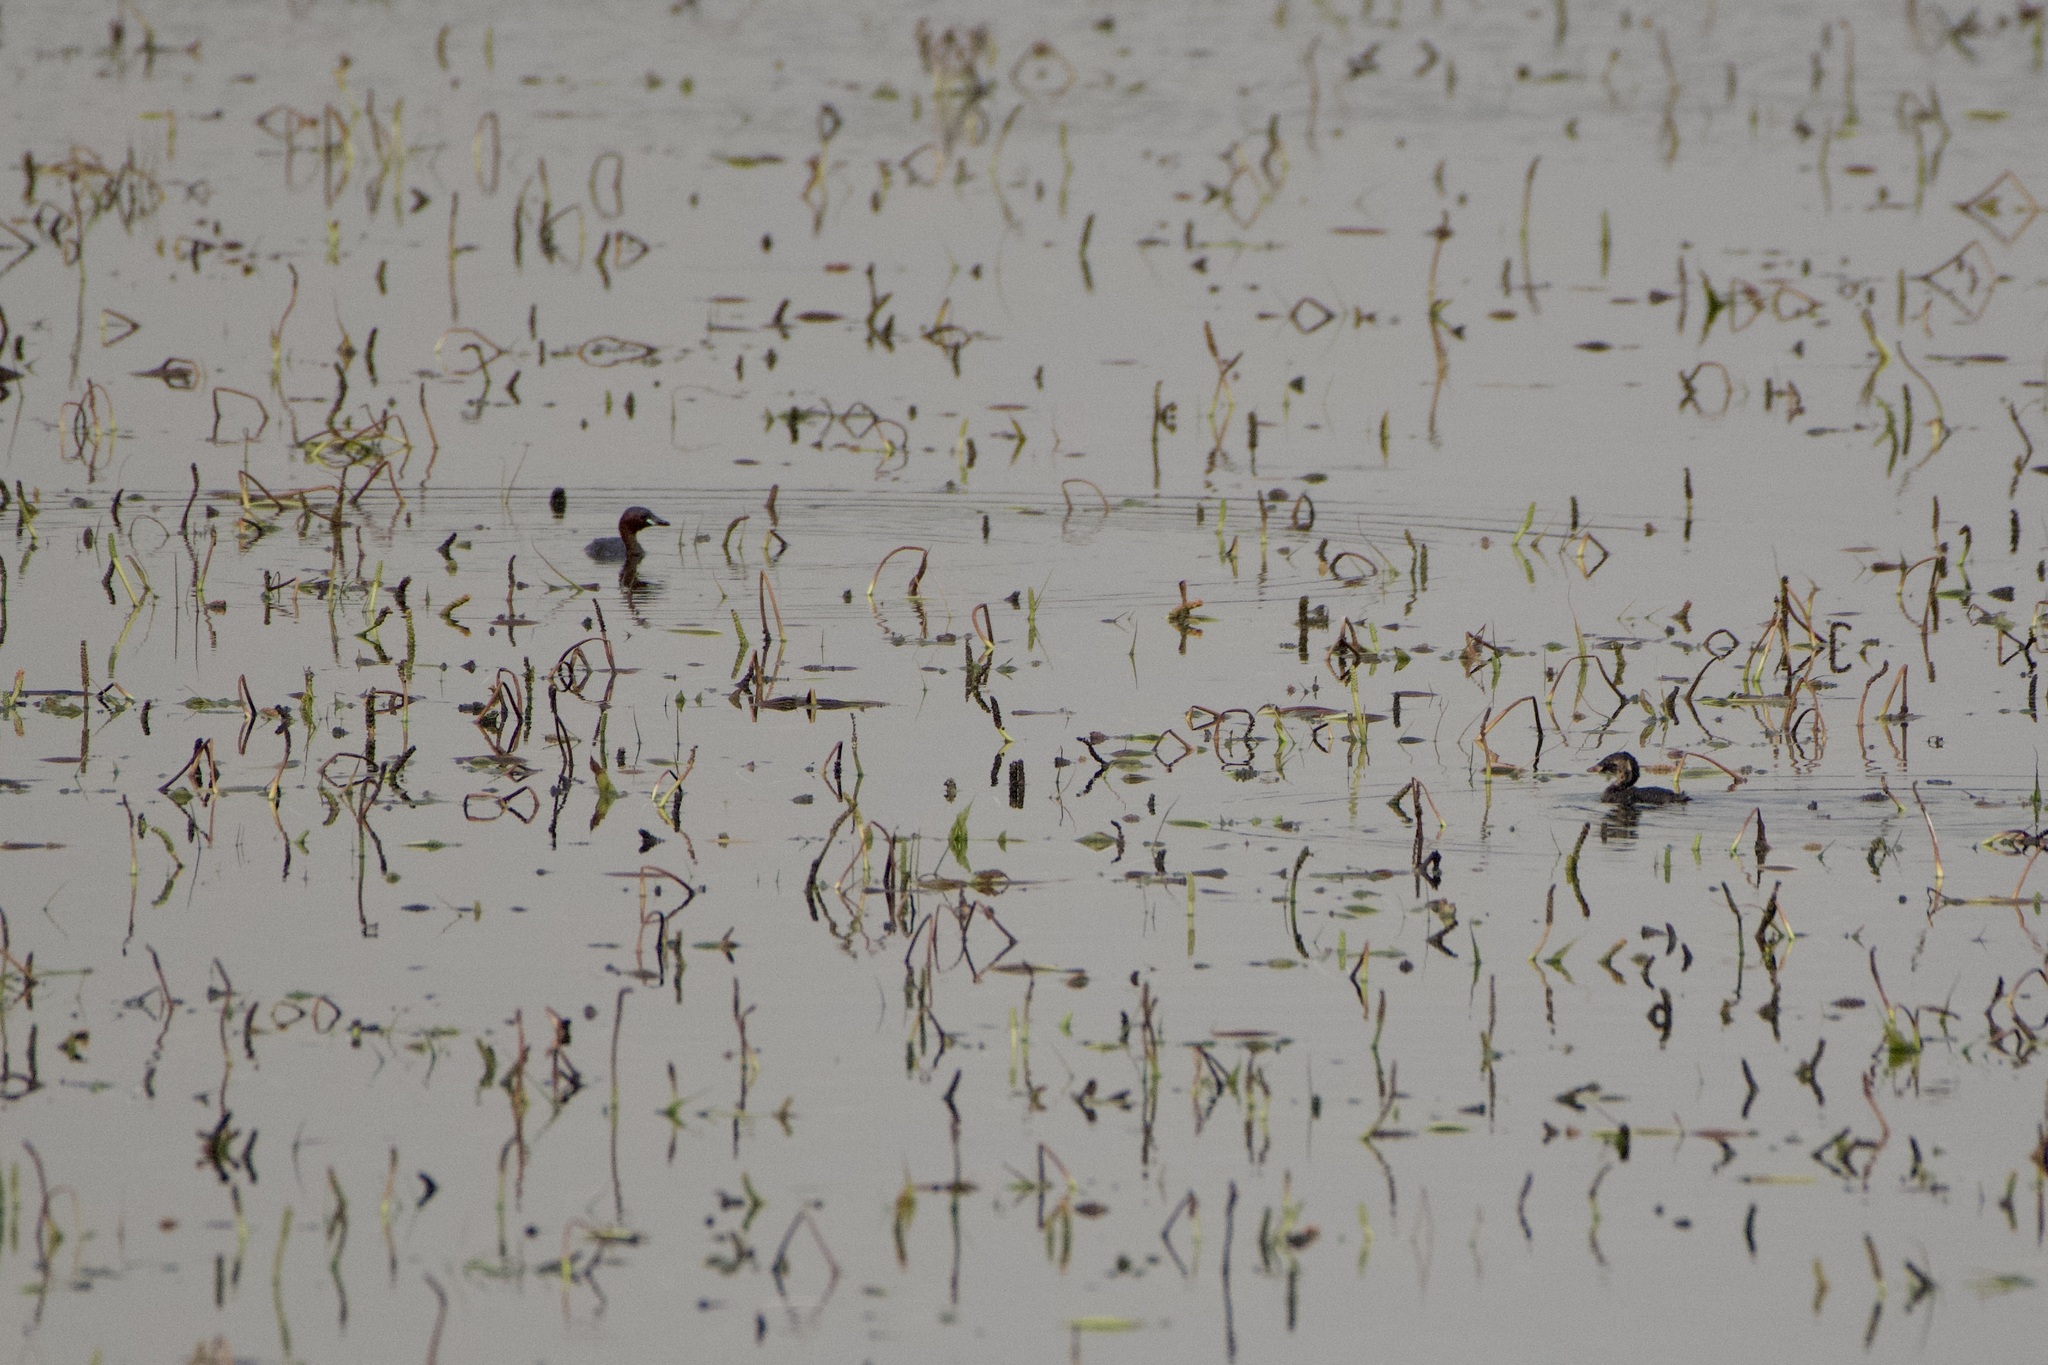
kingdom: Animalia
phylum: Chordata
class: Aves
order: Podicipediformes
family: Podicipedidae
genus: Tachybaptus
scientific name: Tachybaptus ruficollis
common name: Little grebe
